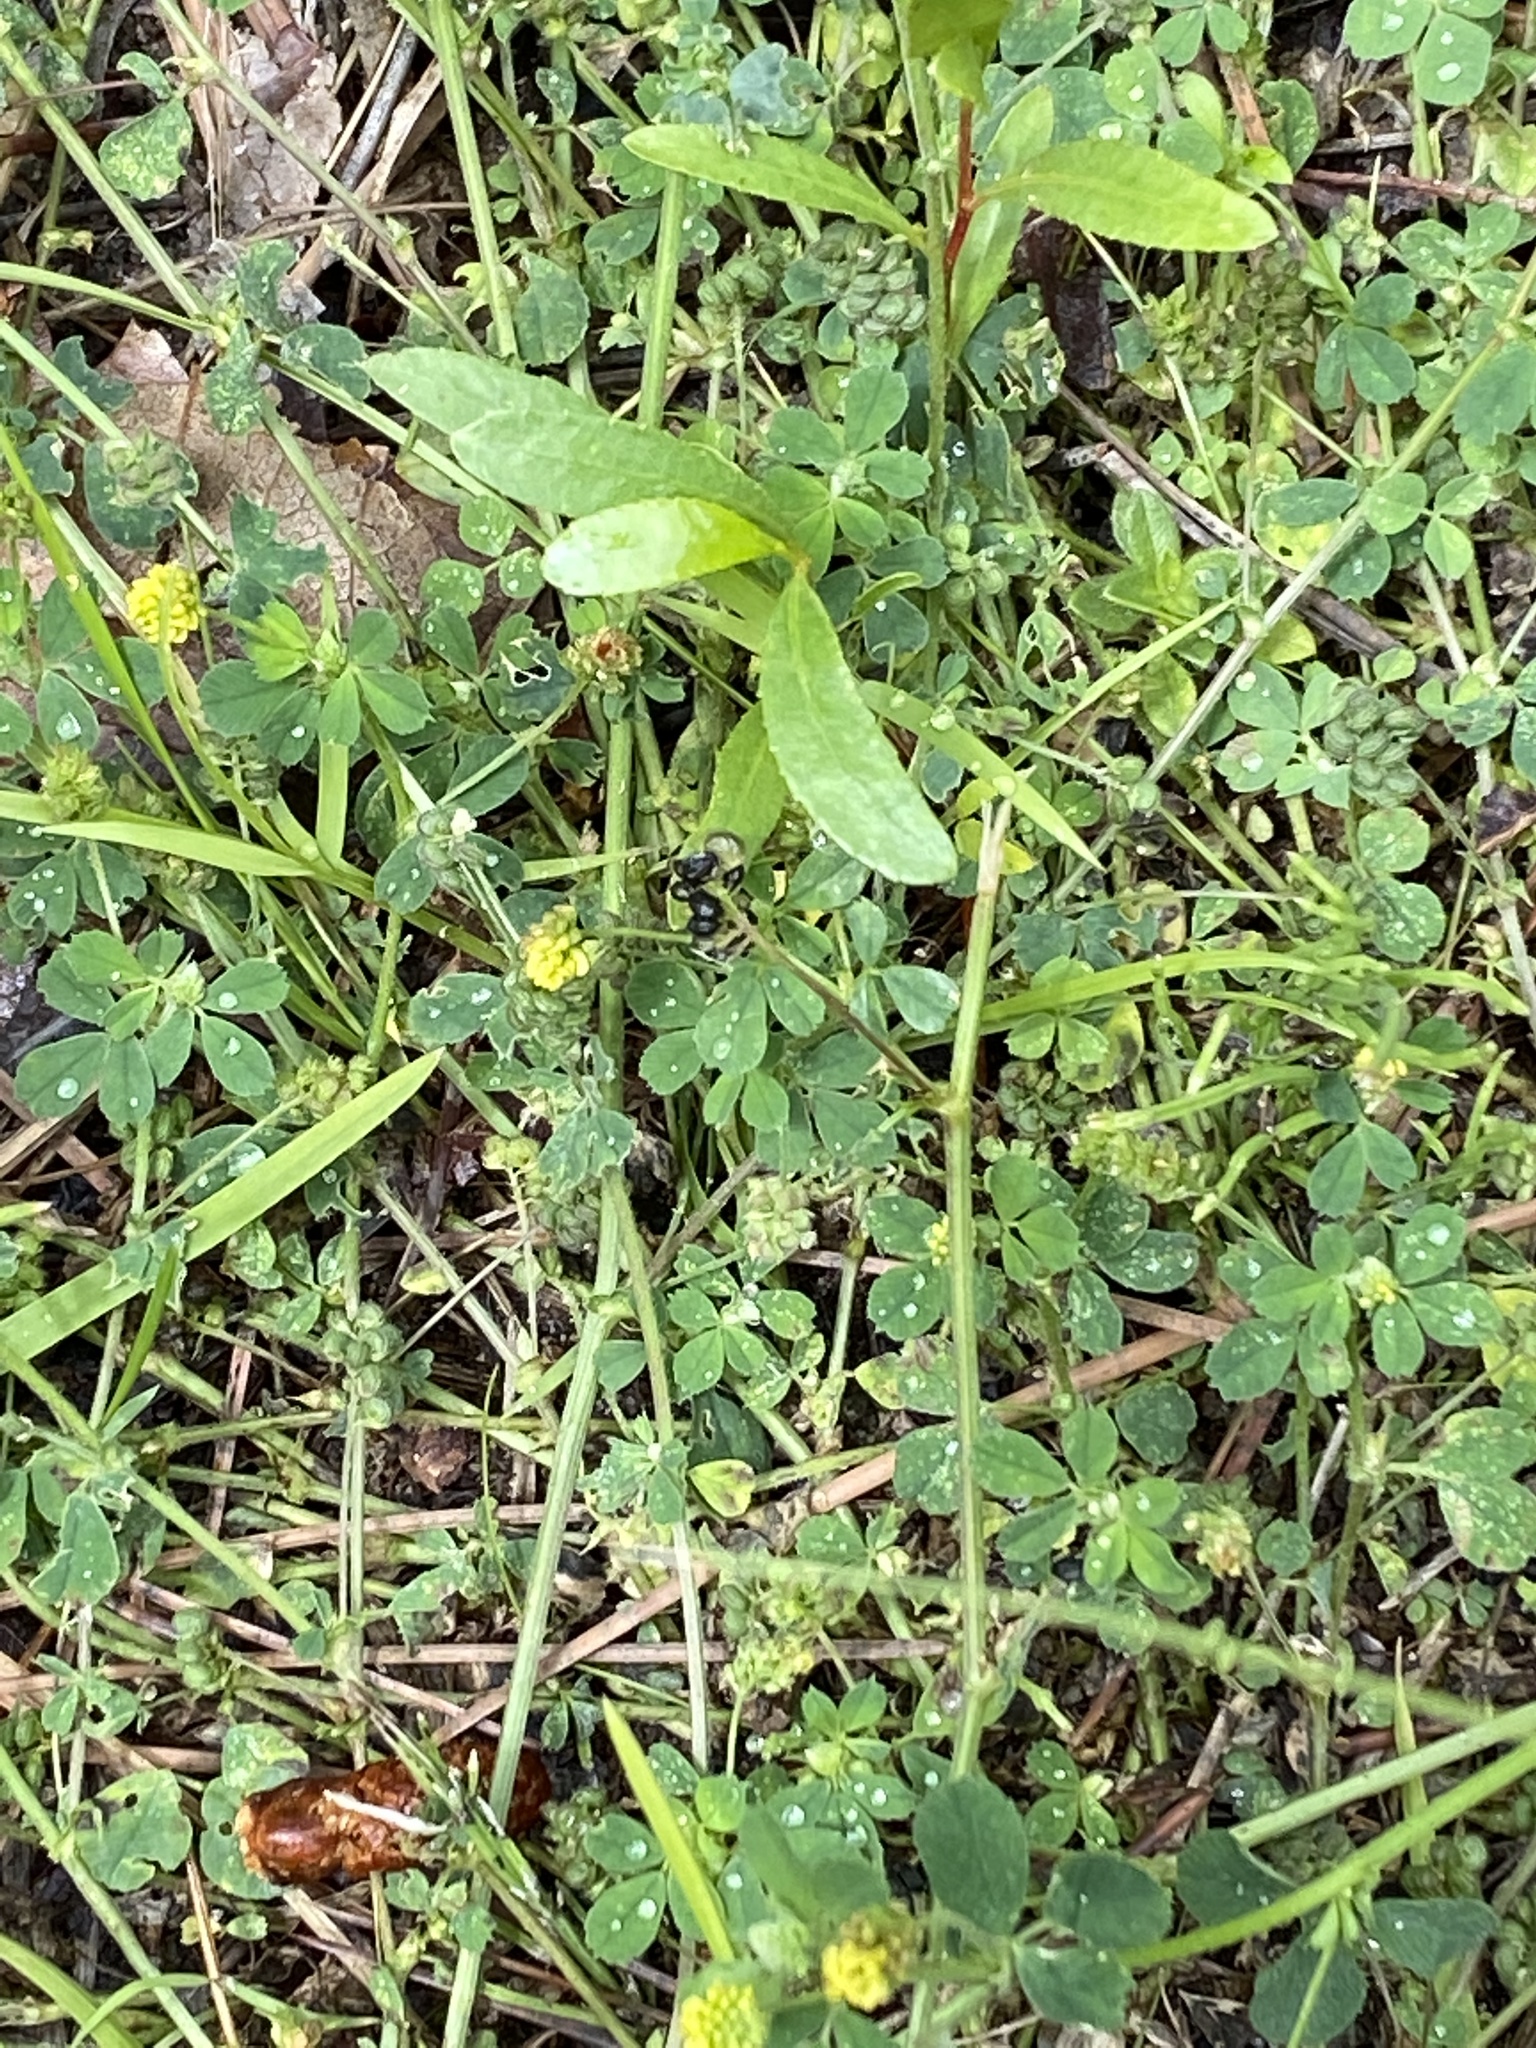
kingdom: Plantae
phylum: Tracheophyta
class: Magnoliopsida
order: Fabales
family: Fabaceae
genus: Medicago
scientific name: Medicago lupulina
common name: Black medick
